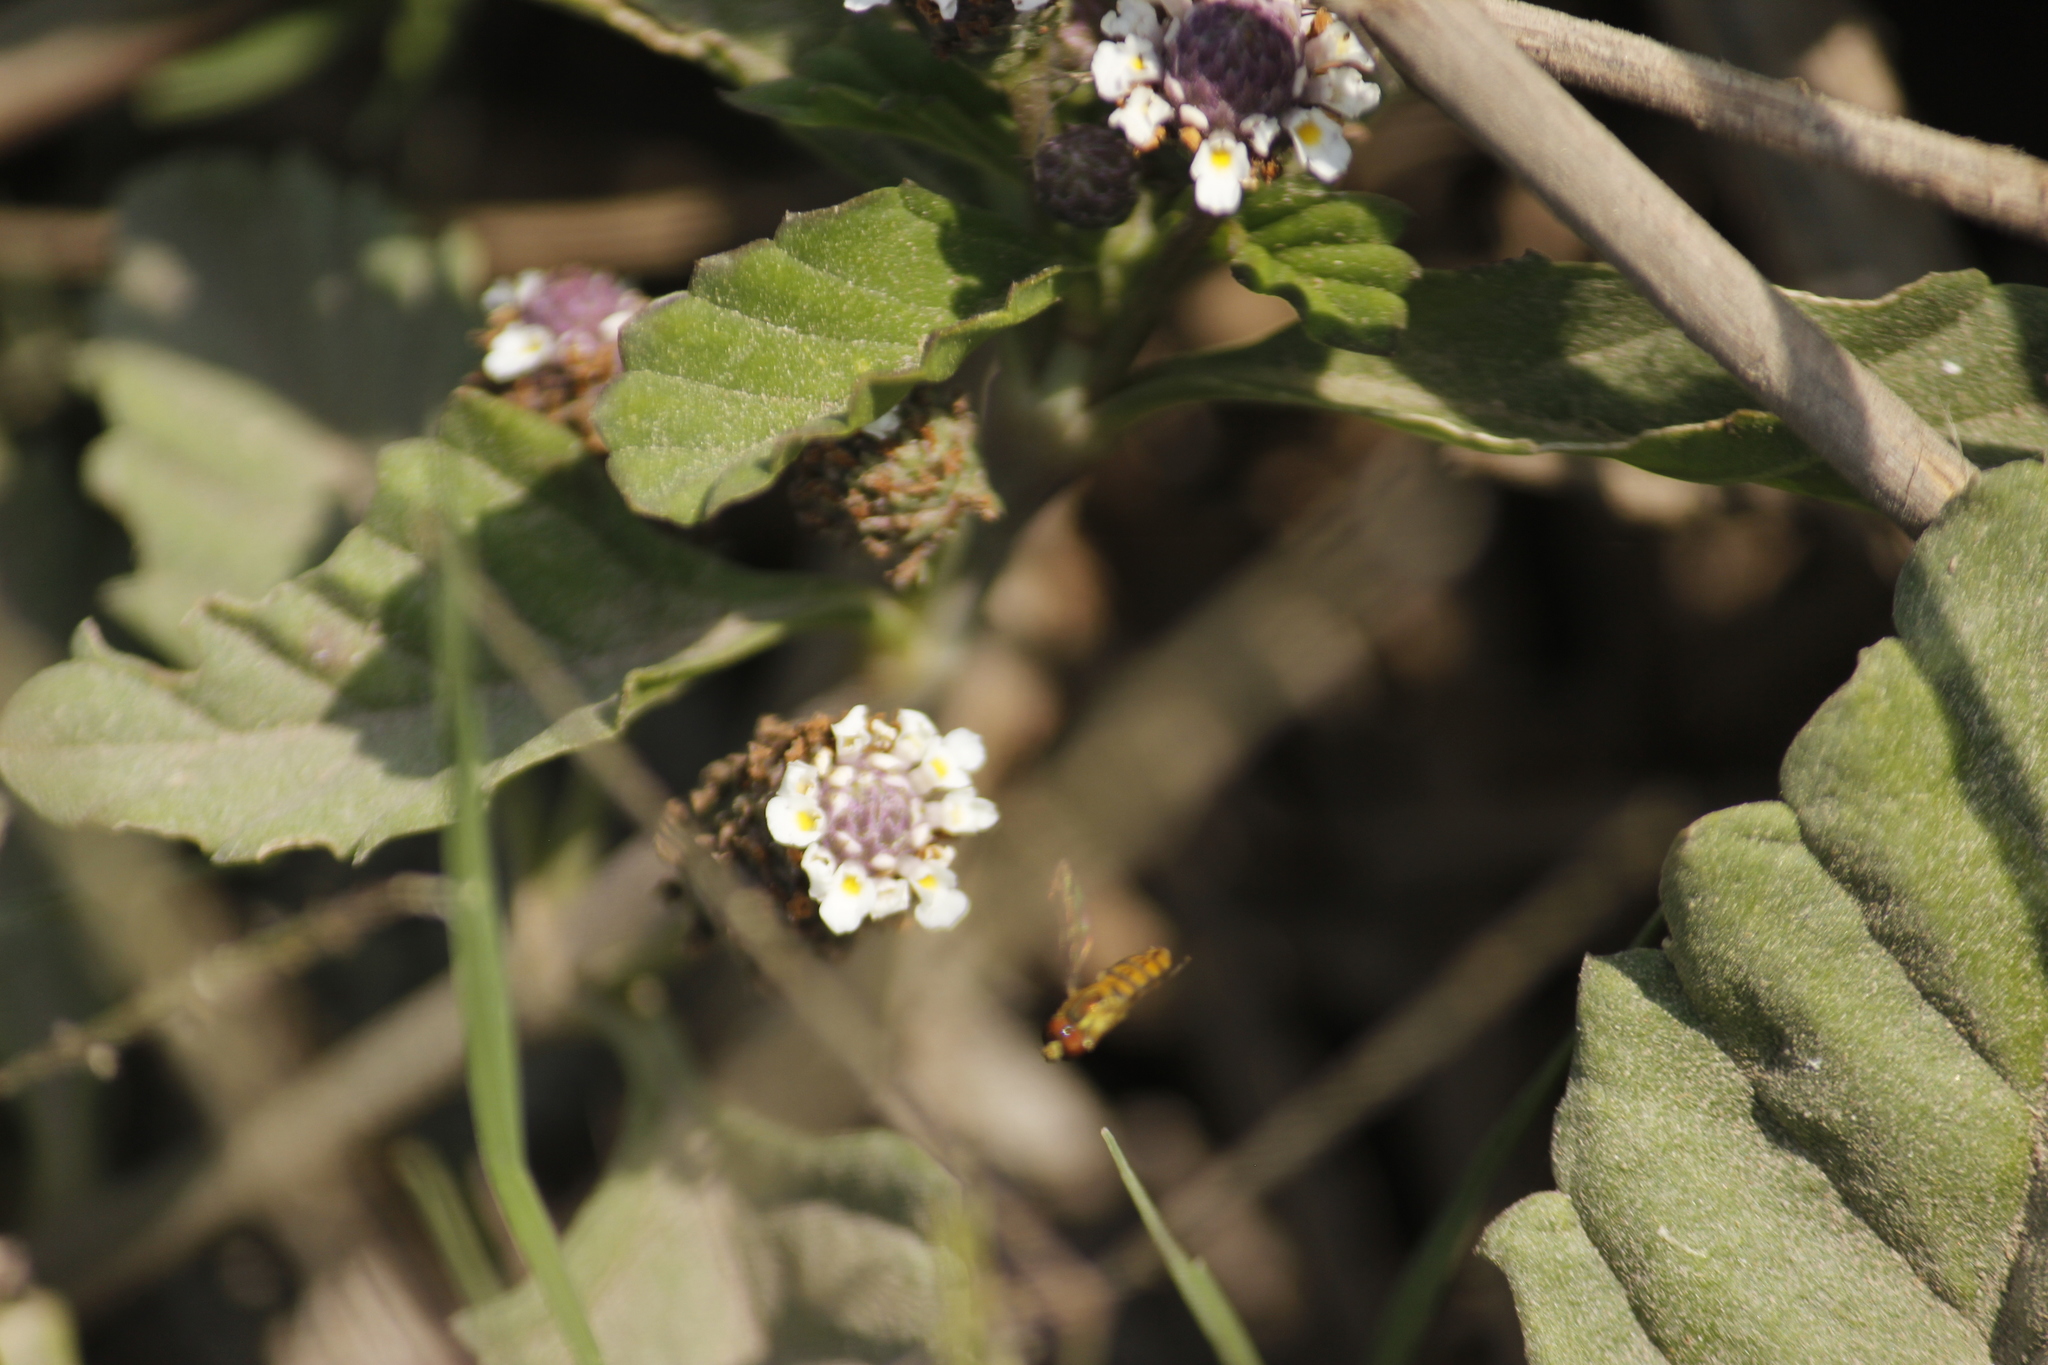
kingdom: Plantae
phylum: Tracheophyta
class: Magnoliopsida
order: Lamiales
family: Verbenaceae
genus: Phyla
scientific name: Phyla nodiflora
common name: Frogfruit
